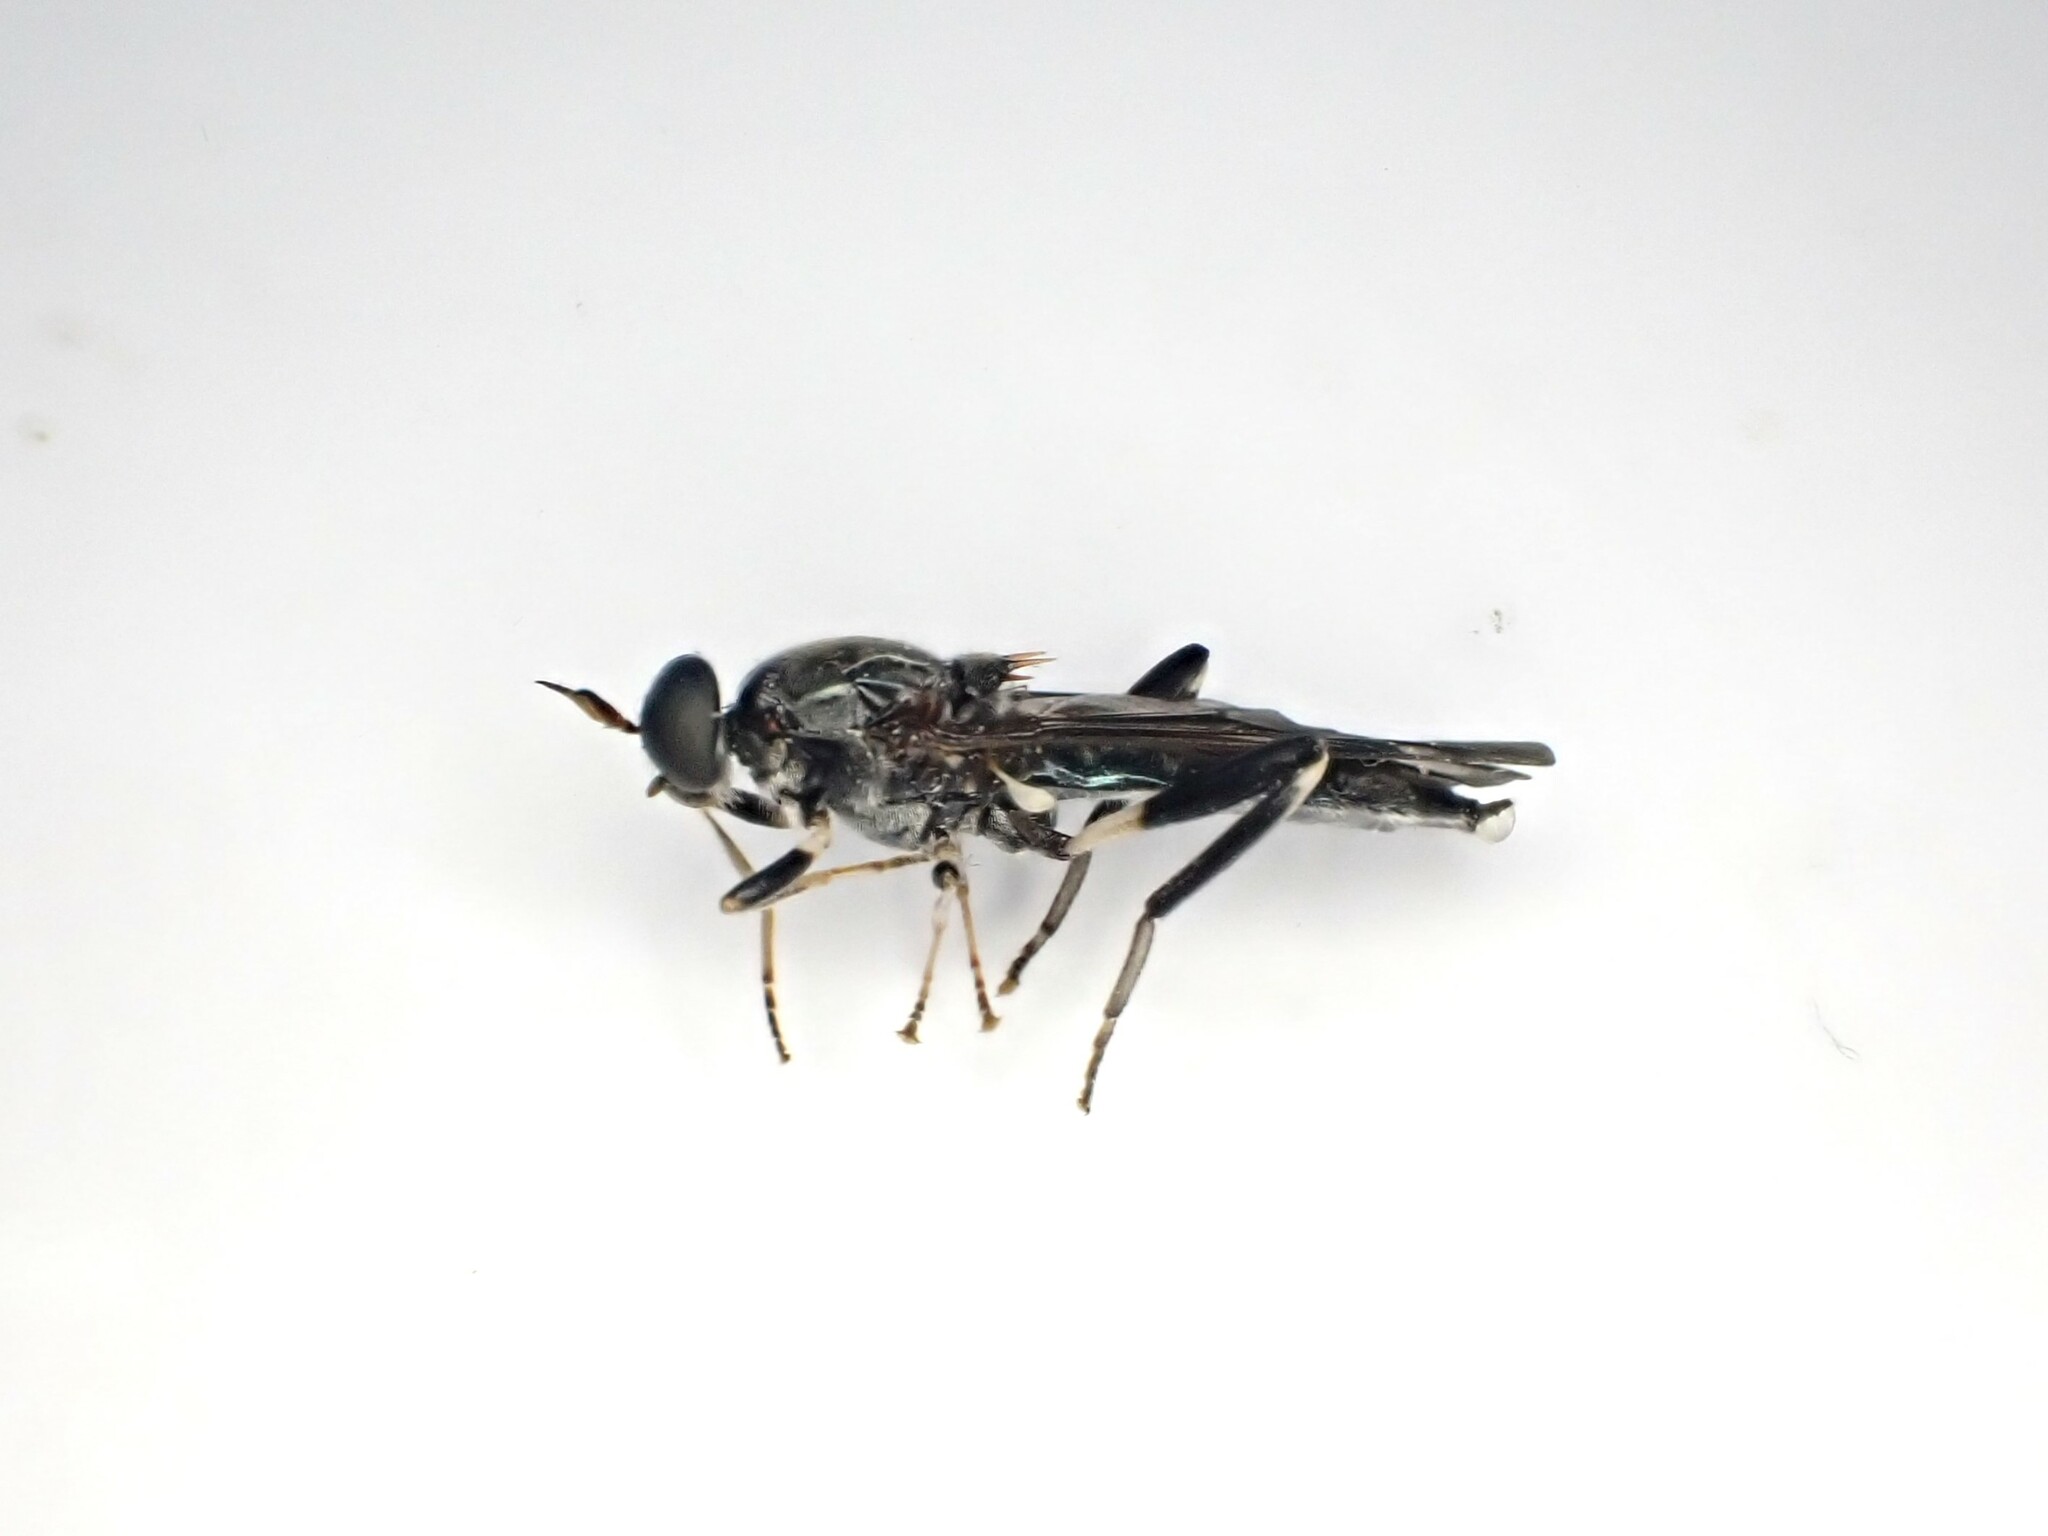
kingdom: Animalia
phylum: Arthropoda
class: Insecta
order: Diptera
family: Stratiomyidae
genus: Exaireta
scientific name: Exaireta spinigera
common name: Blue soldier fly
